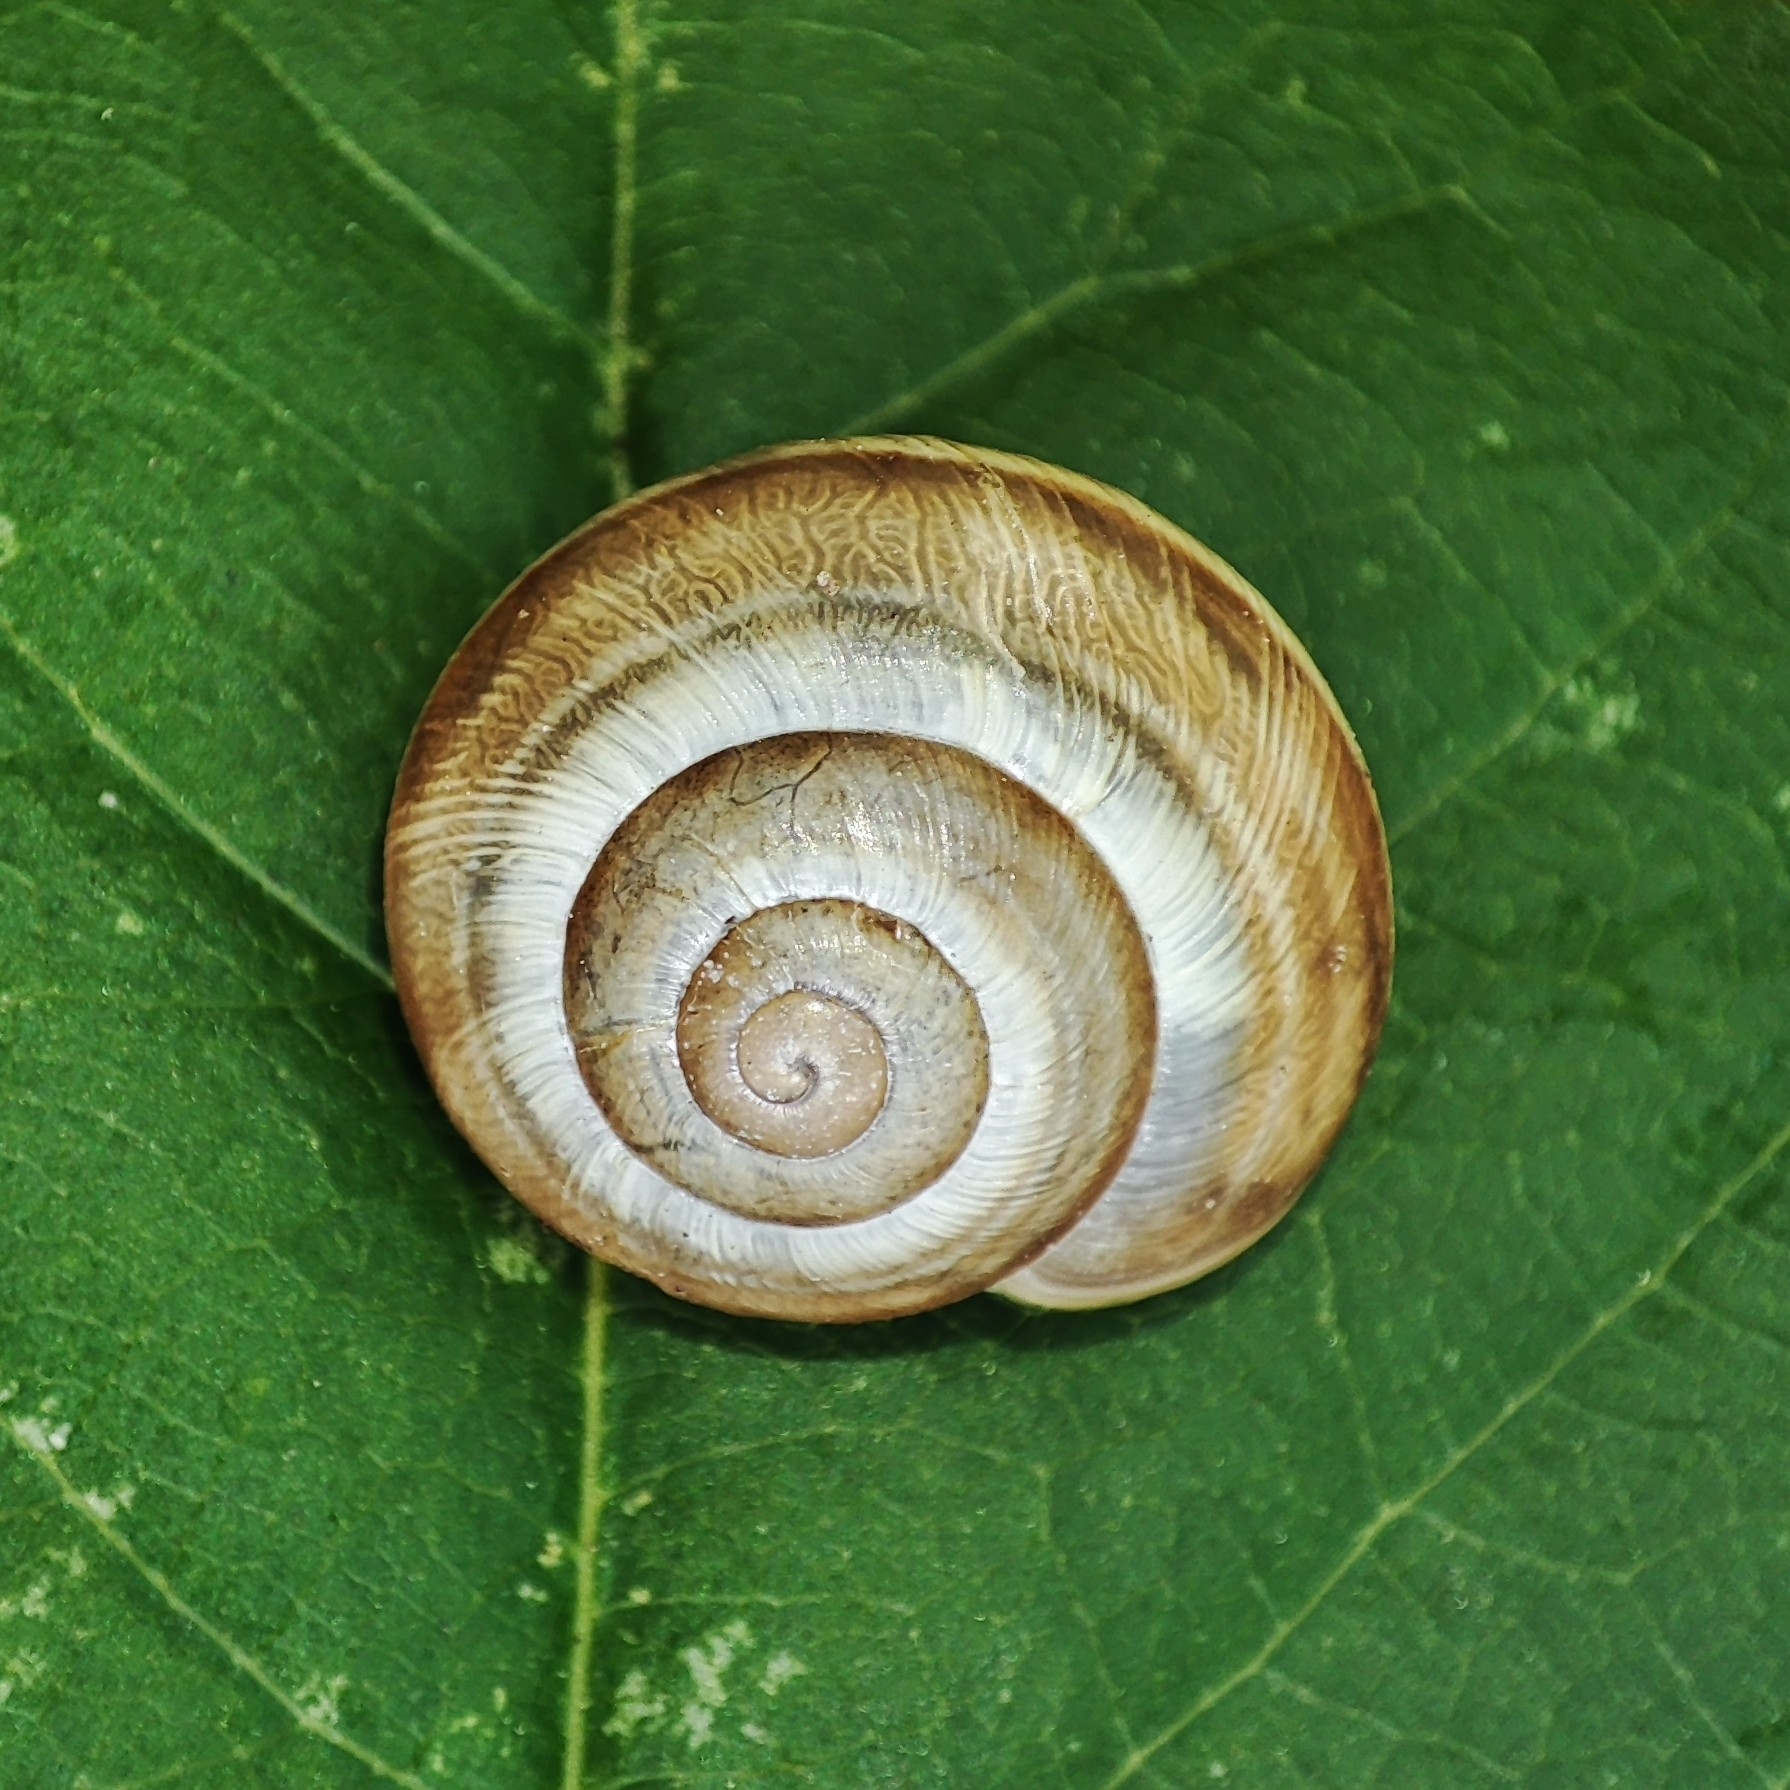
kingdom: Animalia
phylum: Mollusca
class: Gastropoda
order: Stylommatophora
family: Helicidae
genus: Caucasotachea
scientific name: Caucasotachea vindobonensis
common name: European helicid land snail
